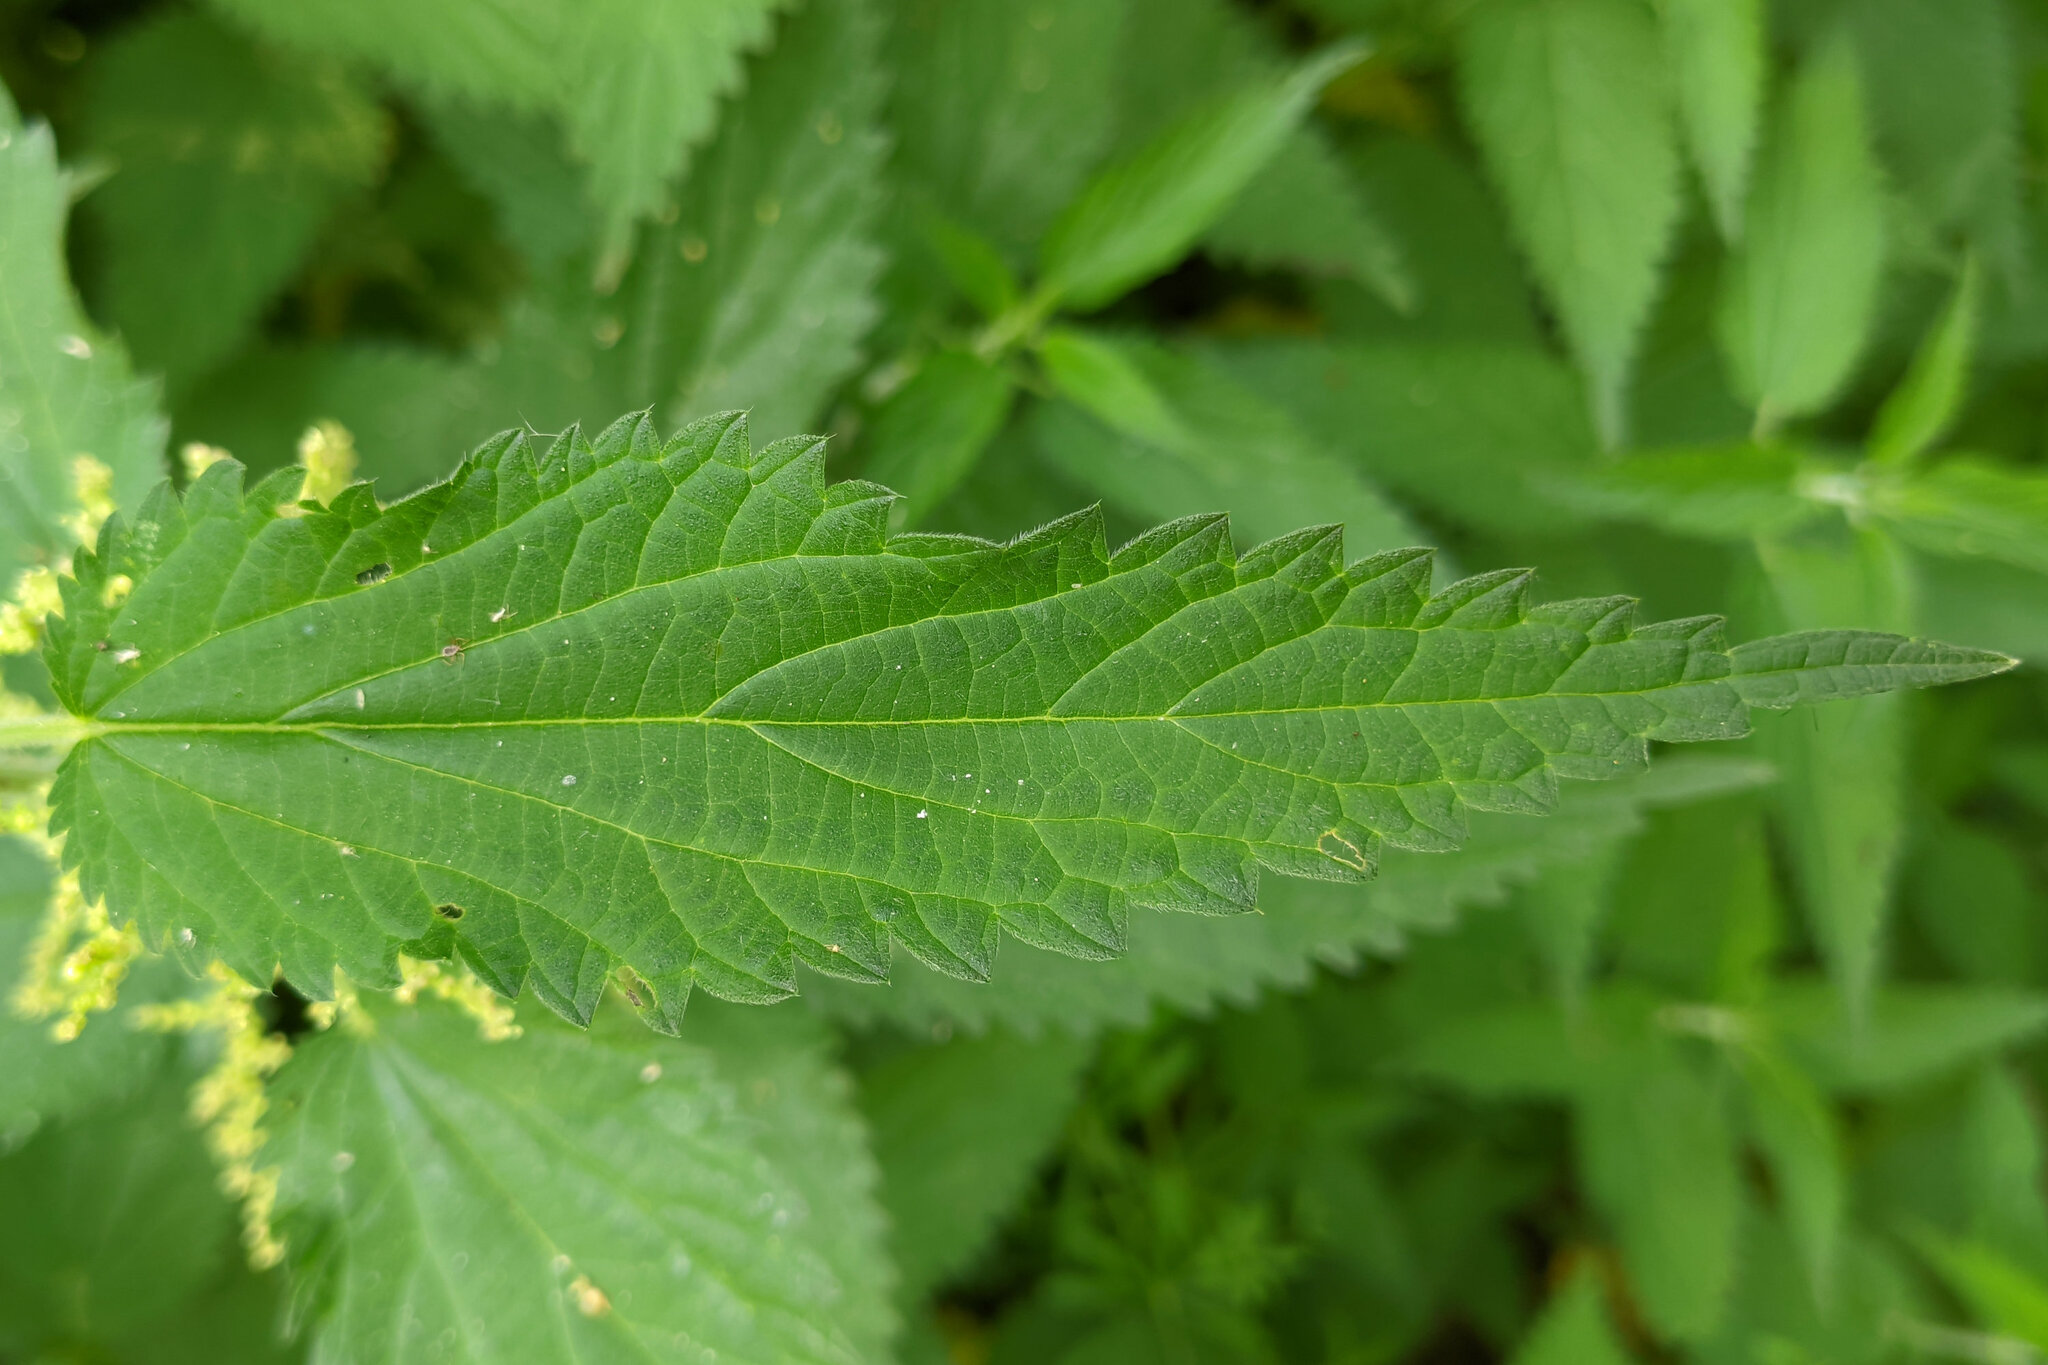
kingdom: Plantae
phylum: Tracheophyta
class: Magnoliopsida
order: Rosales
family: Urticaceae
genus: Urtica
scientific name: Urtica dioica
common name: Common nettle
